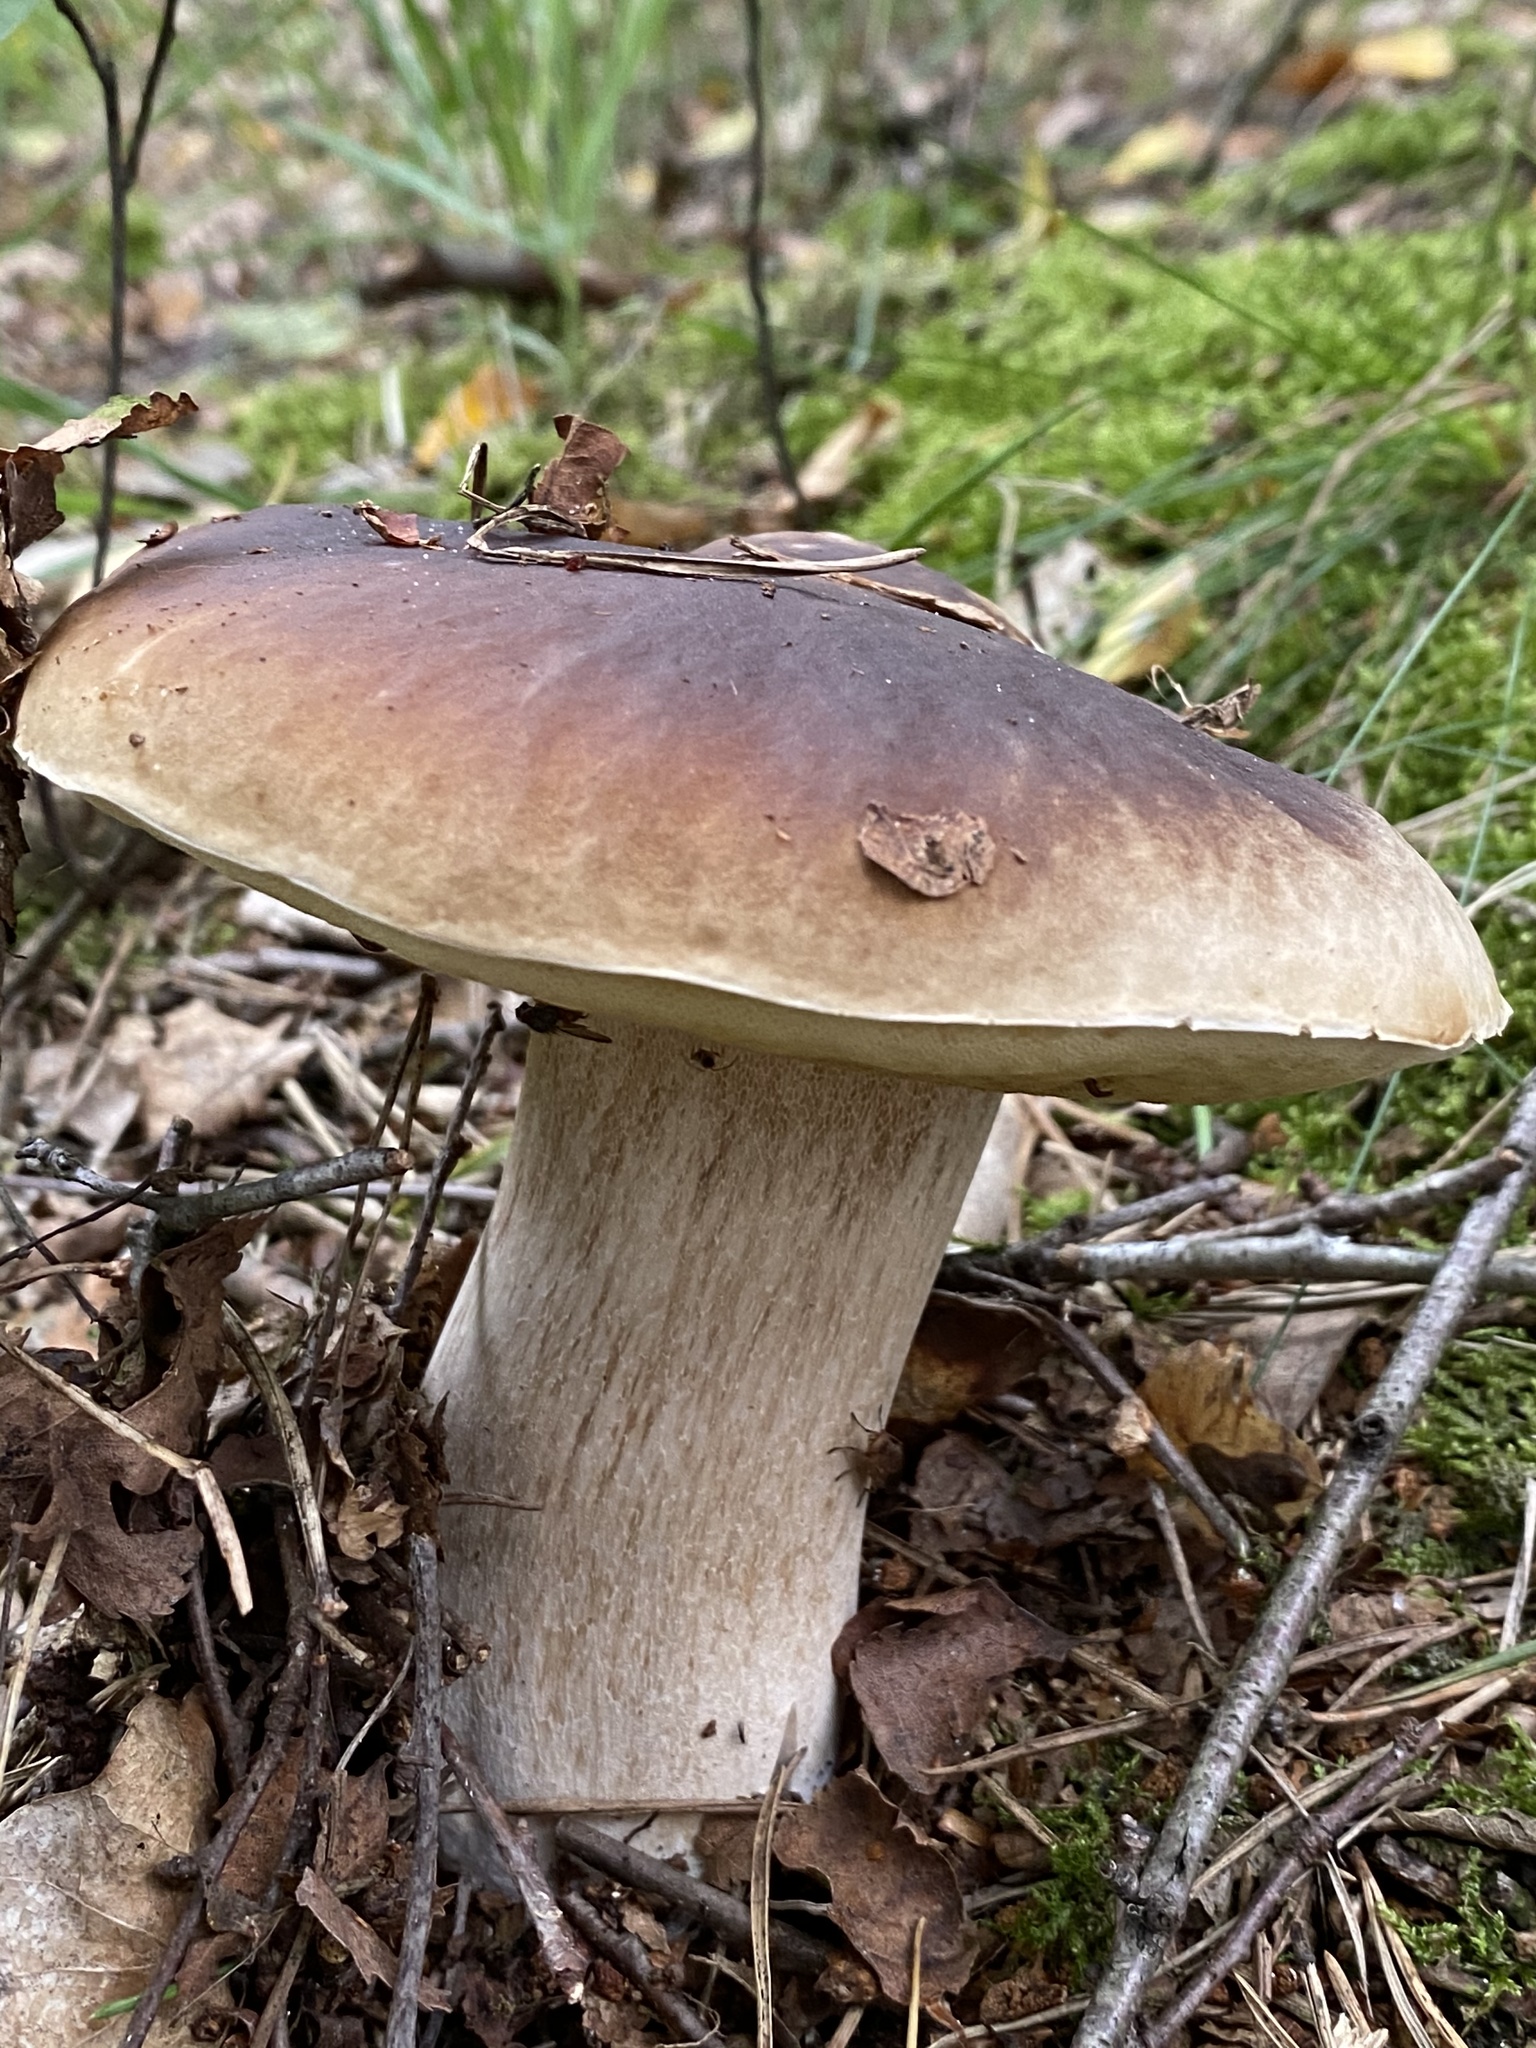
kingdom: Fungi
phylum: Basidiomycota
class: Agaricomycetes
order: Boletales
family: Boletaceae
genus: Boletus
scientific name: Boletus edulis
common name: Cep
